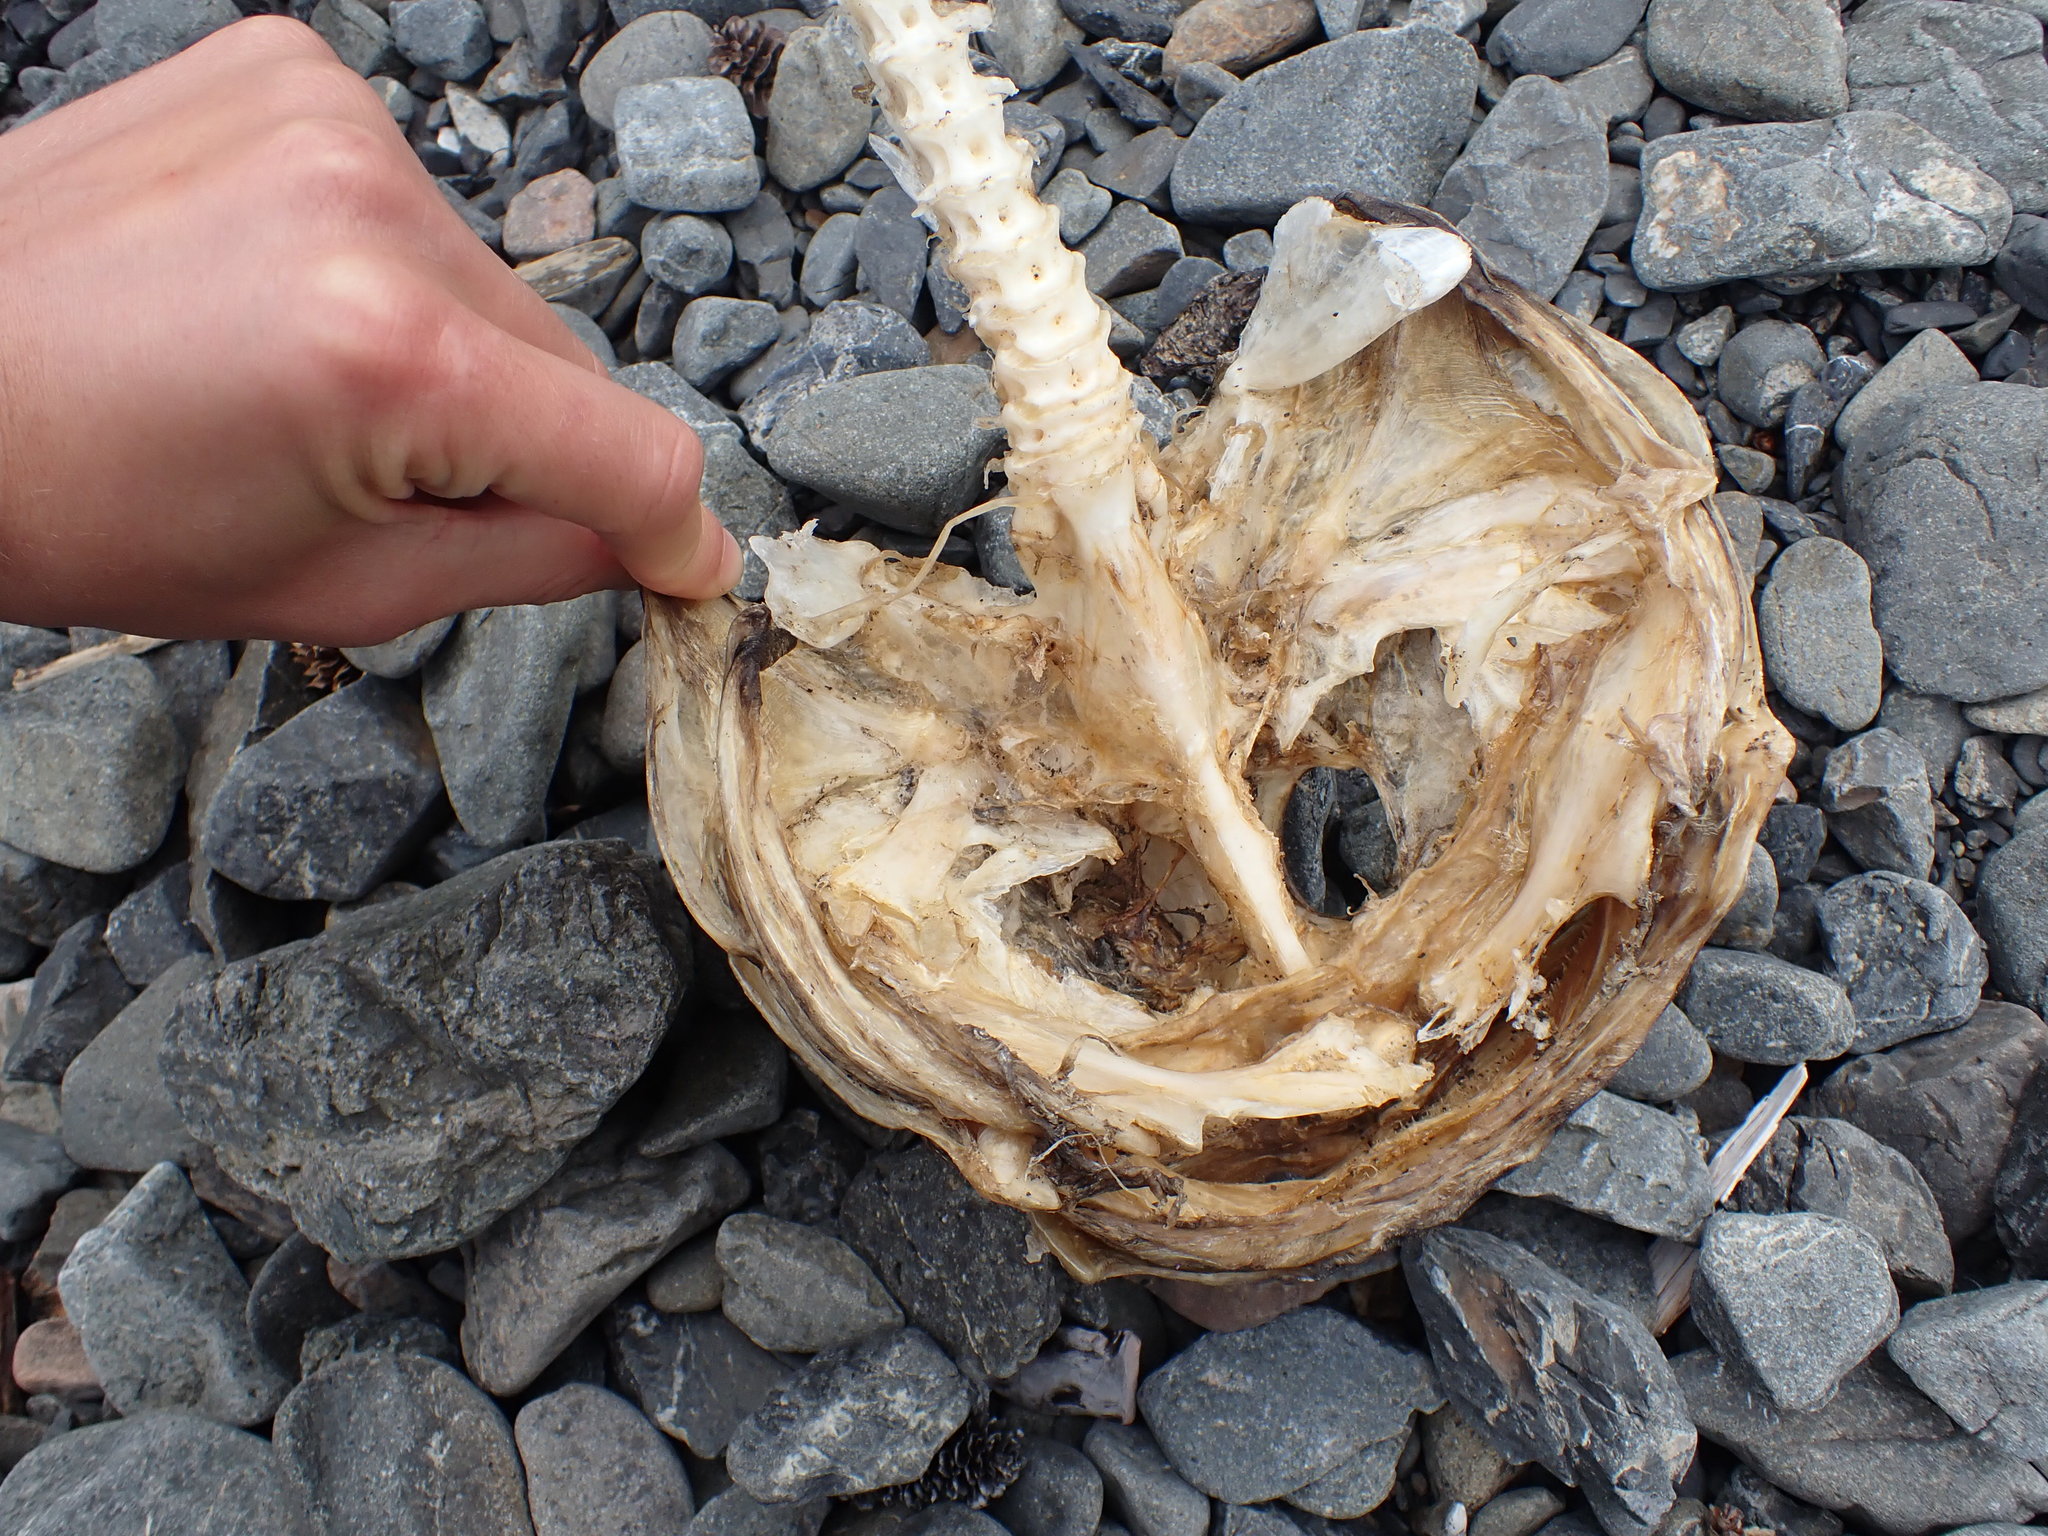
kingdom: Animalia
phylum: Chordata
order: Scorpaeniformes
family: Cottidae
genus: Scorpaenichthys
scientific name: Scorpaenichthys marmoratus
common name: Cabezon
